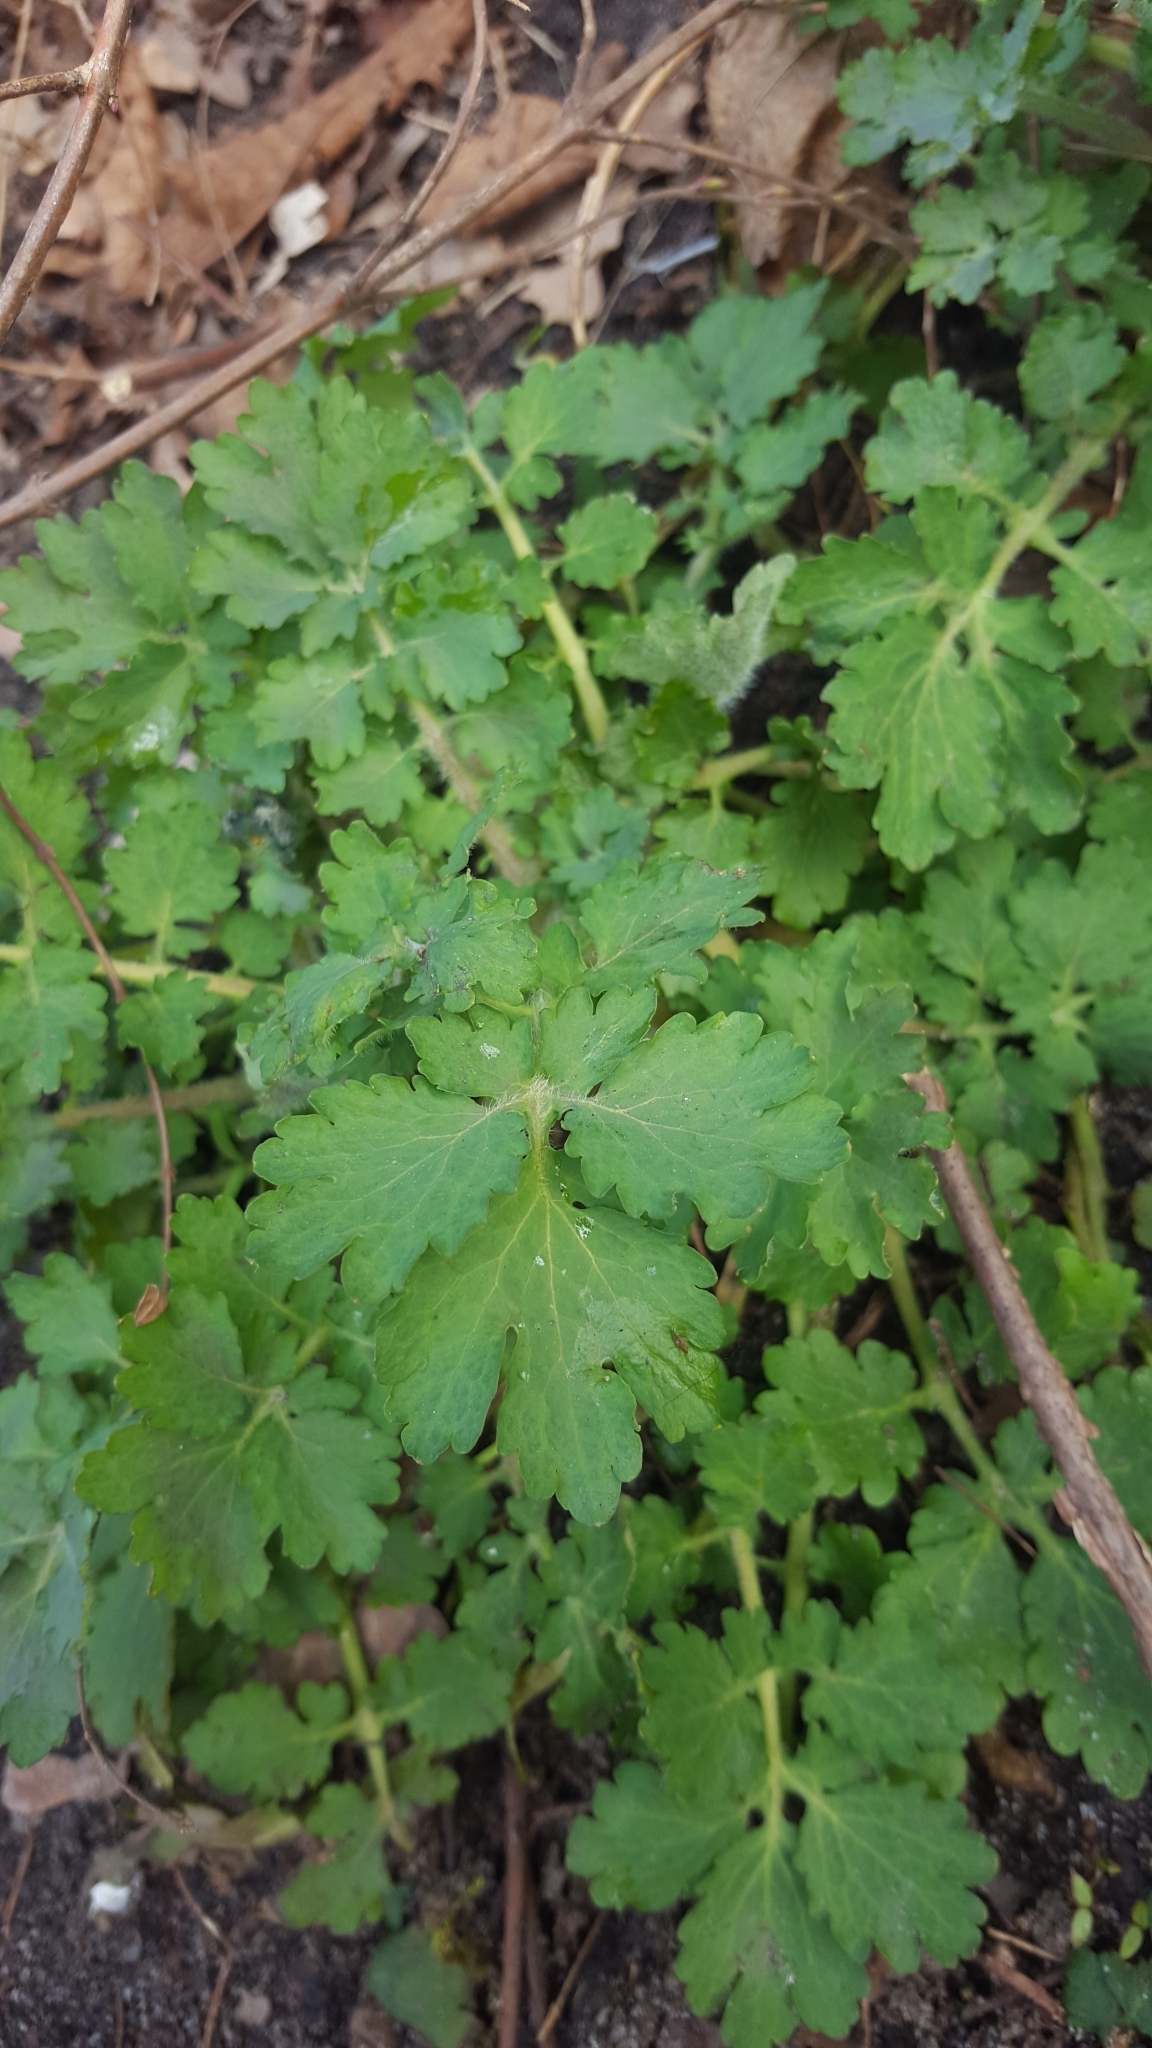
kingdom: Plantae
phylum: Tracheophyta
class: Magnoliopsida
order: Ranunculales
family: Papaveraceae
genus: Chelidonium
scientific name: Chelidonium majus
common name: Greater celandine
